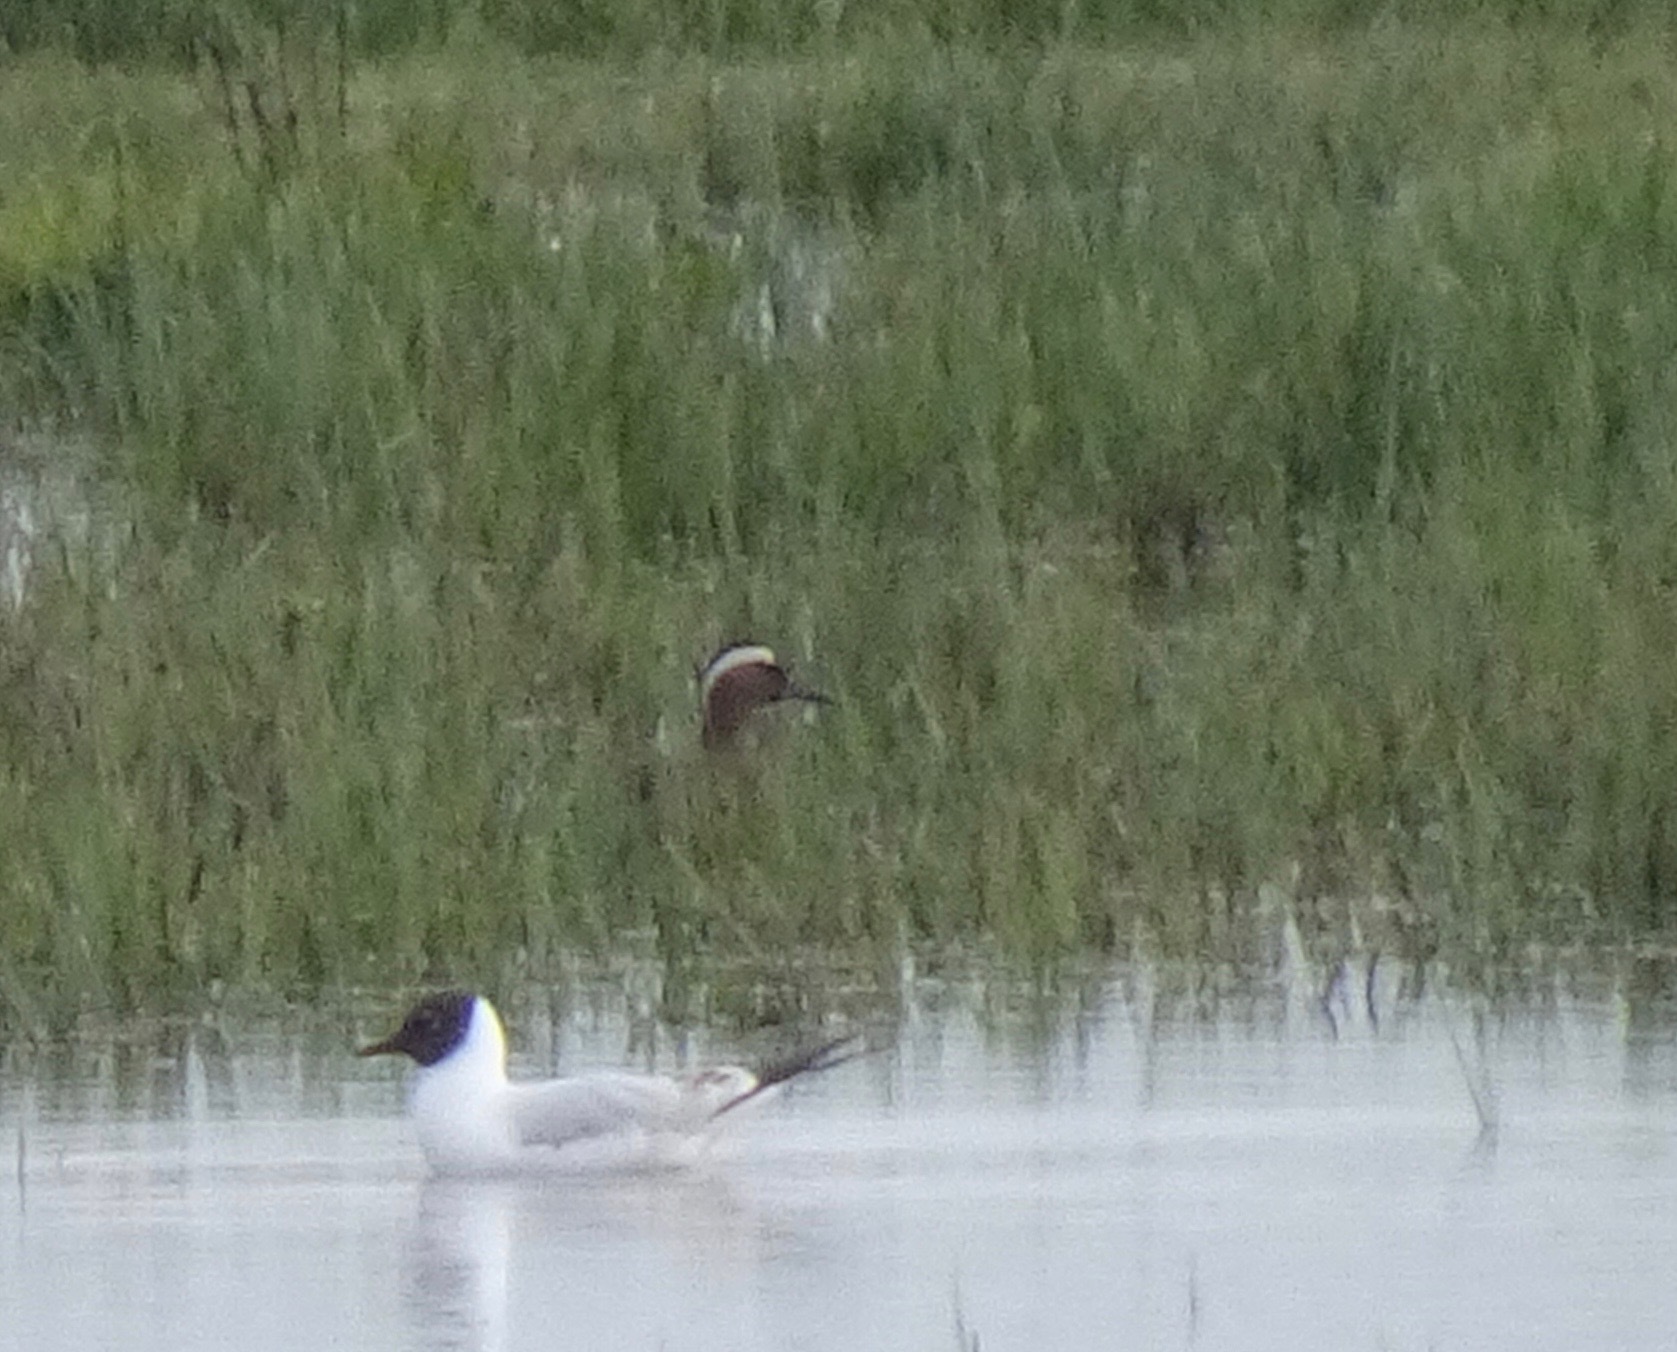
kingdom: Animalia
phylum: Chordata
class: Aves
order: Anseriformes
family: Anatidae
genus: Spatula
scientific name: Spatula querquedula
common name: Garganey
